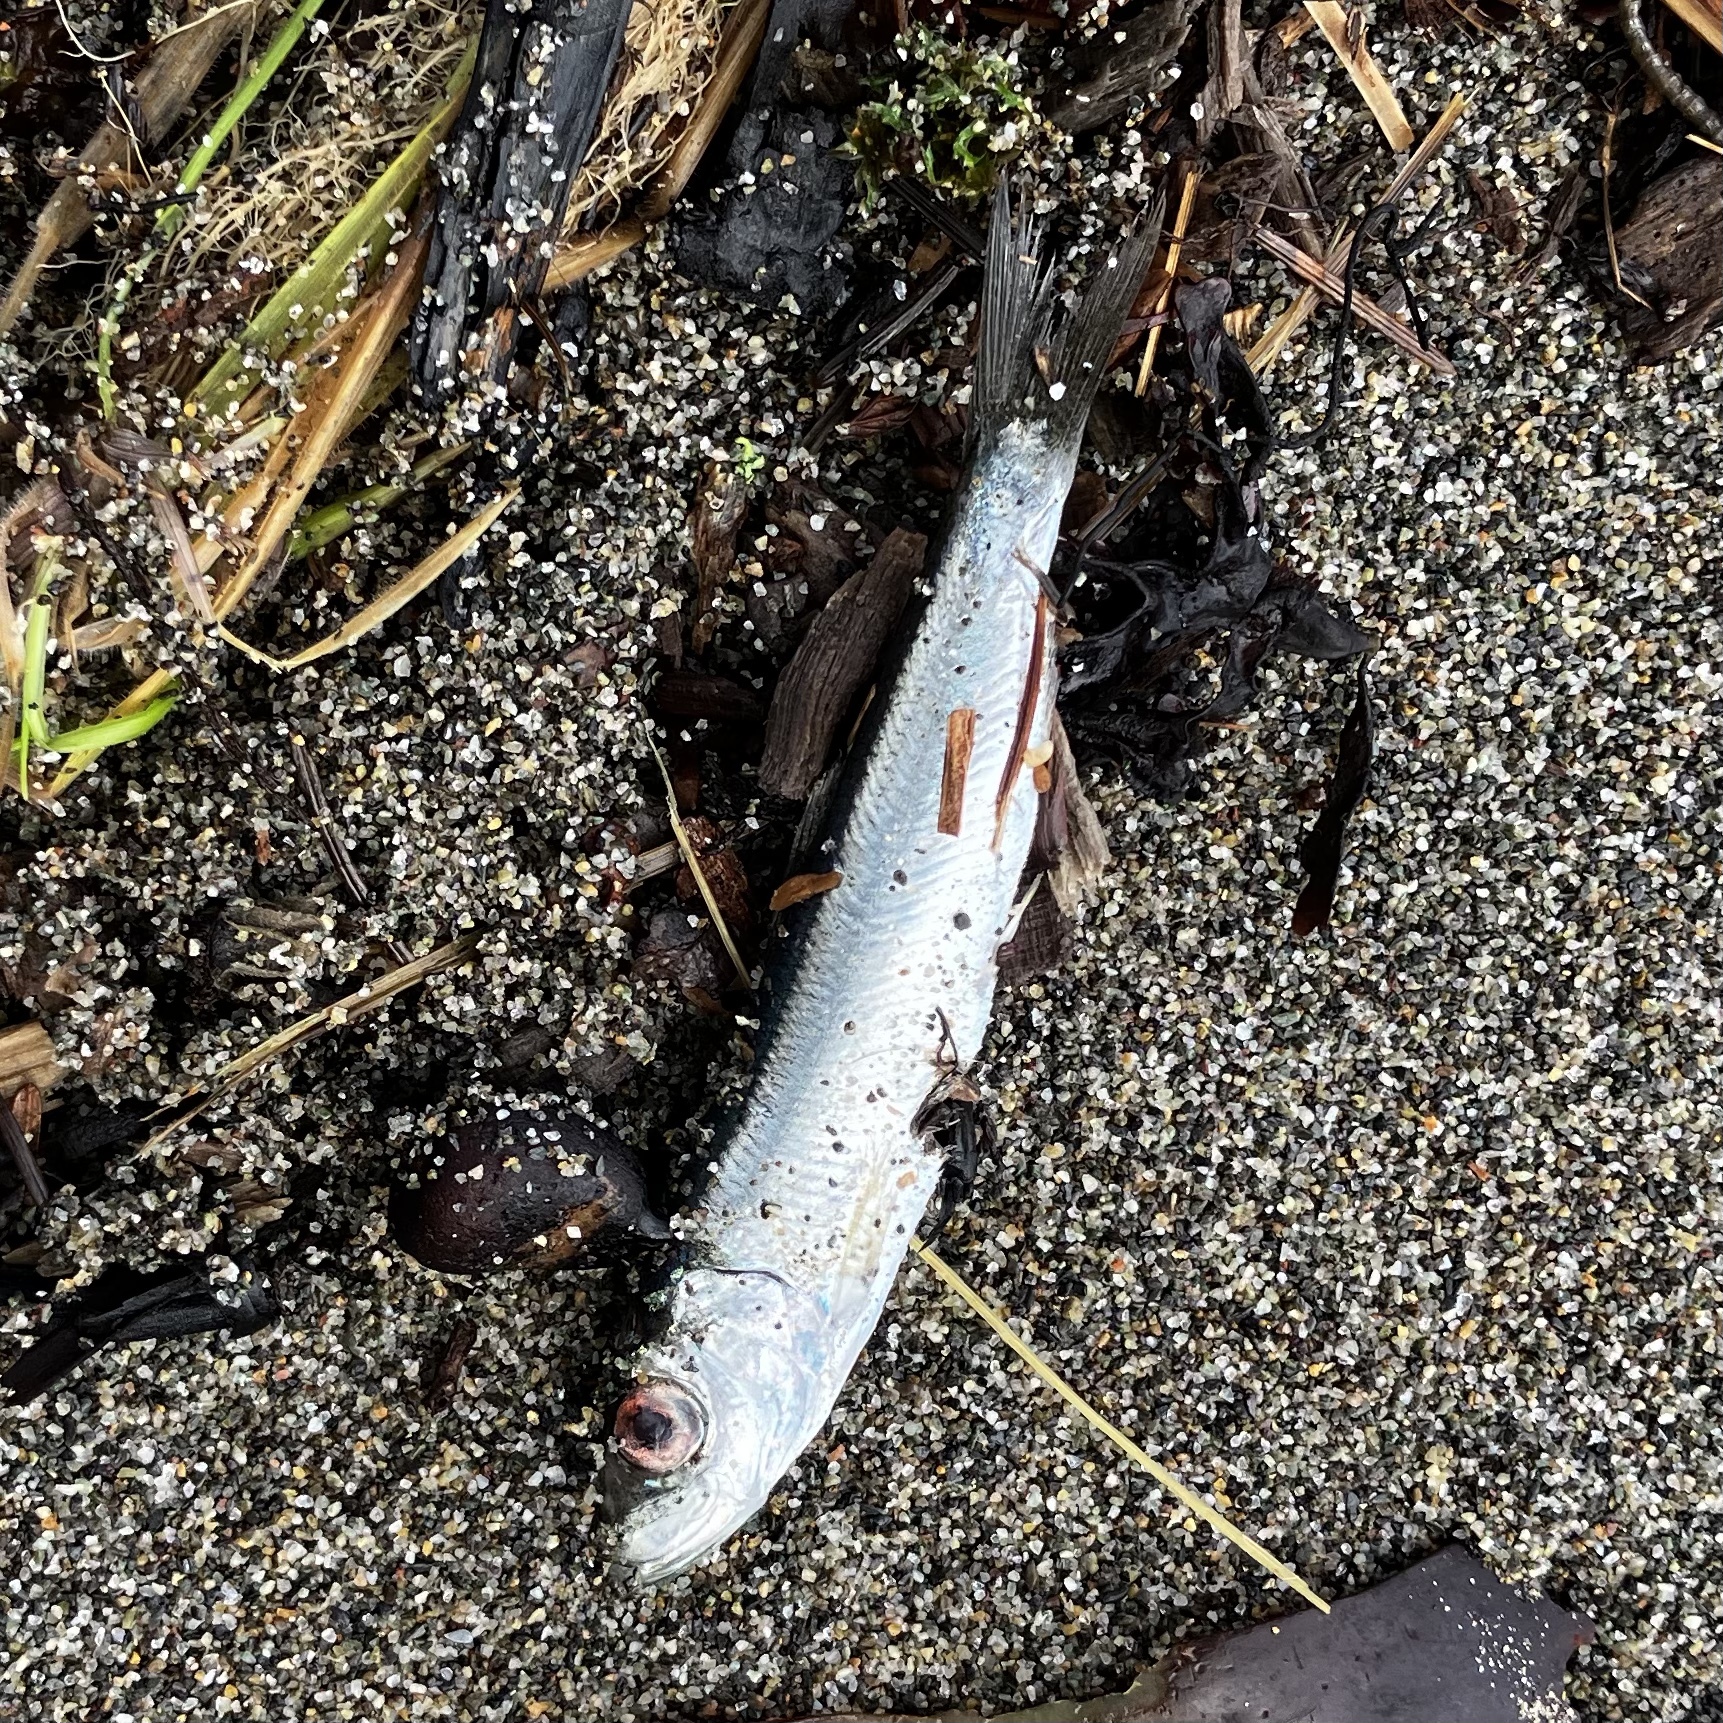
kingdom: Animalia
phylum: Chordata
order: Clupeiformes
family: Clupeidae
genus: Clupea
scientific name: Clupea pallasii
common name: Pacific herring
